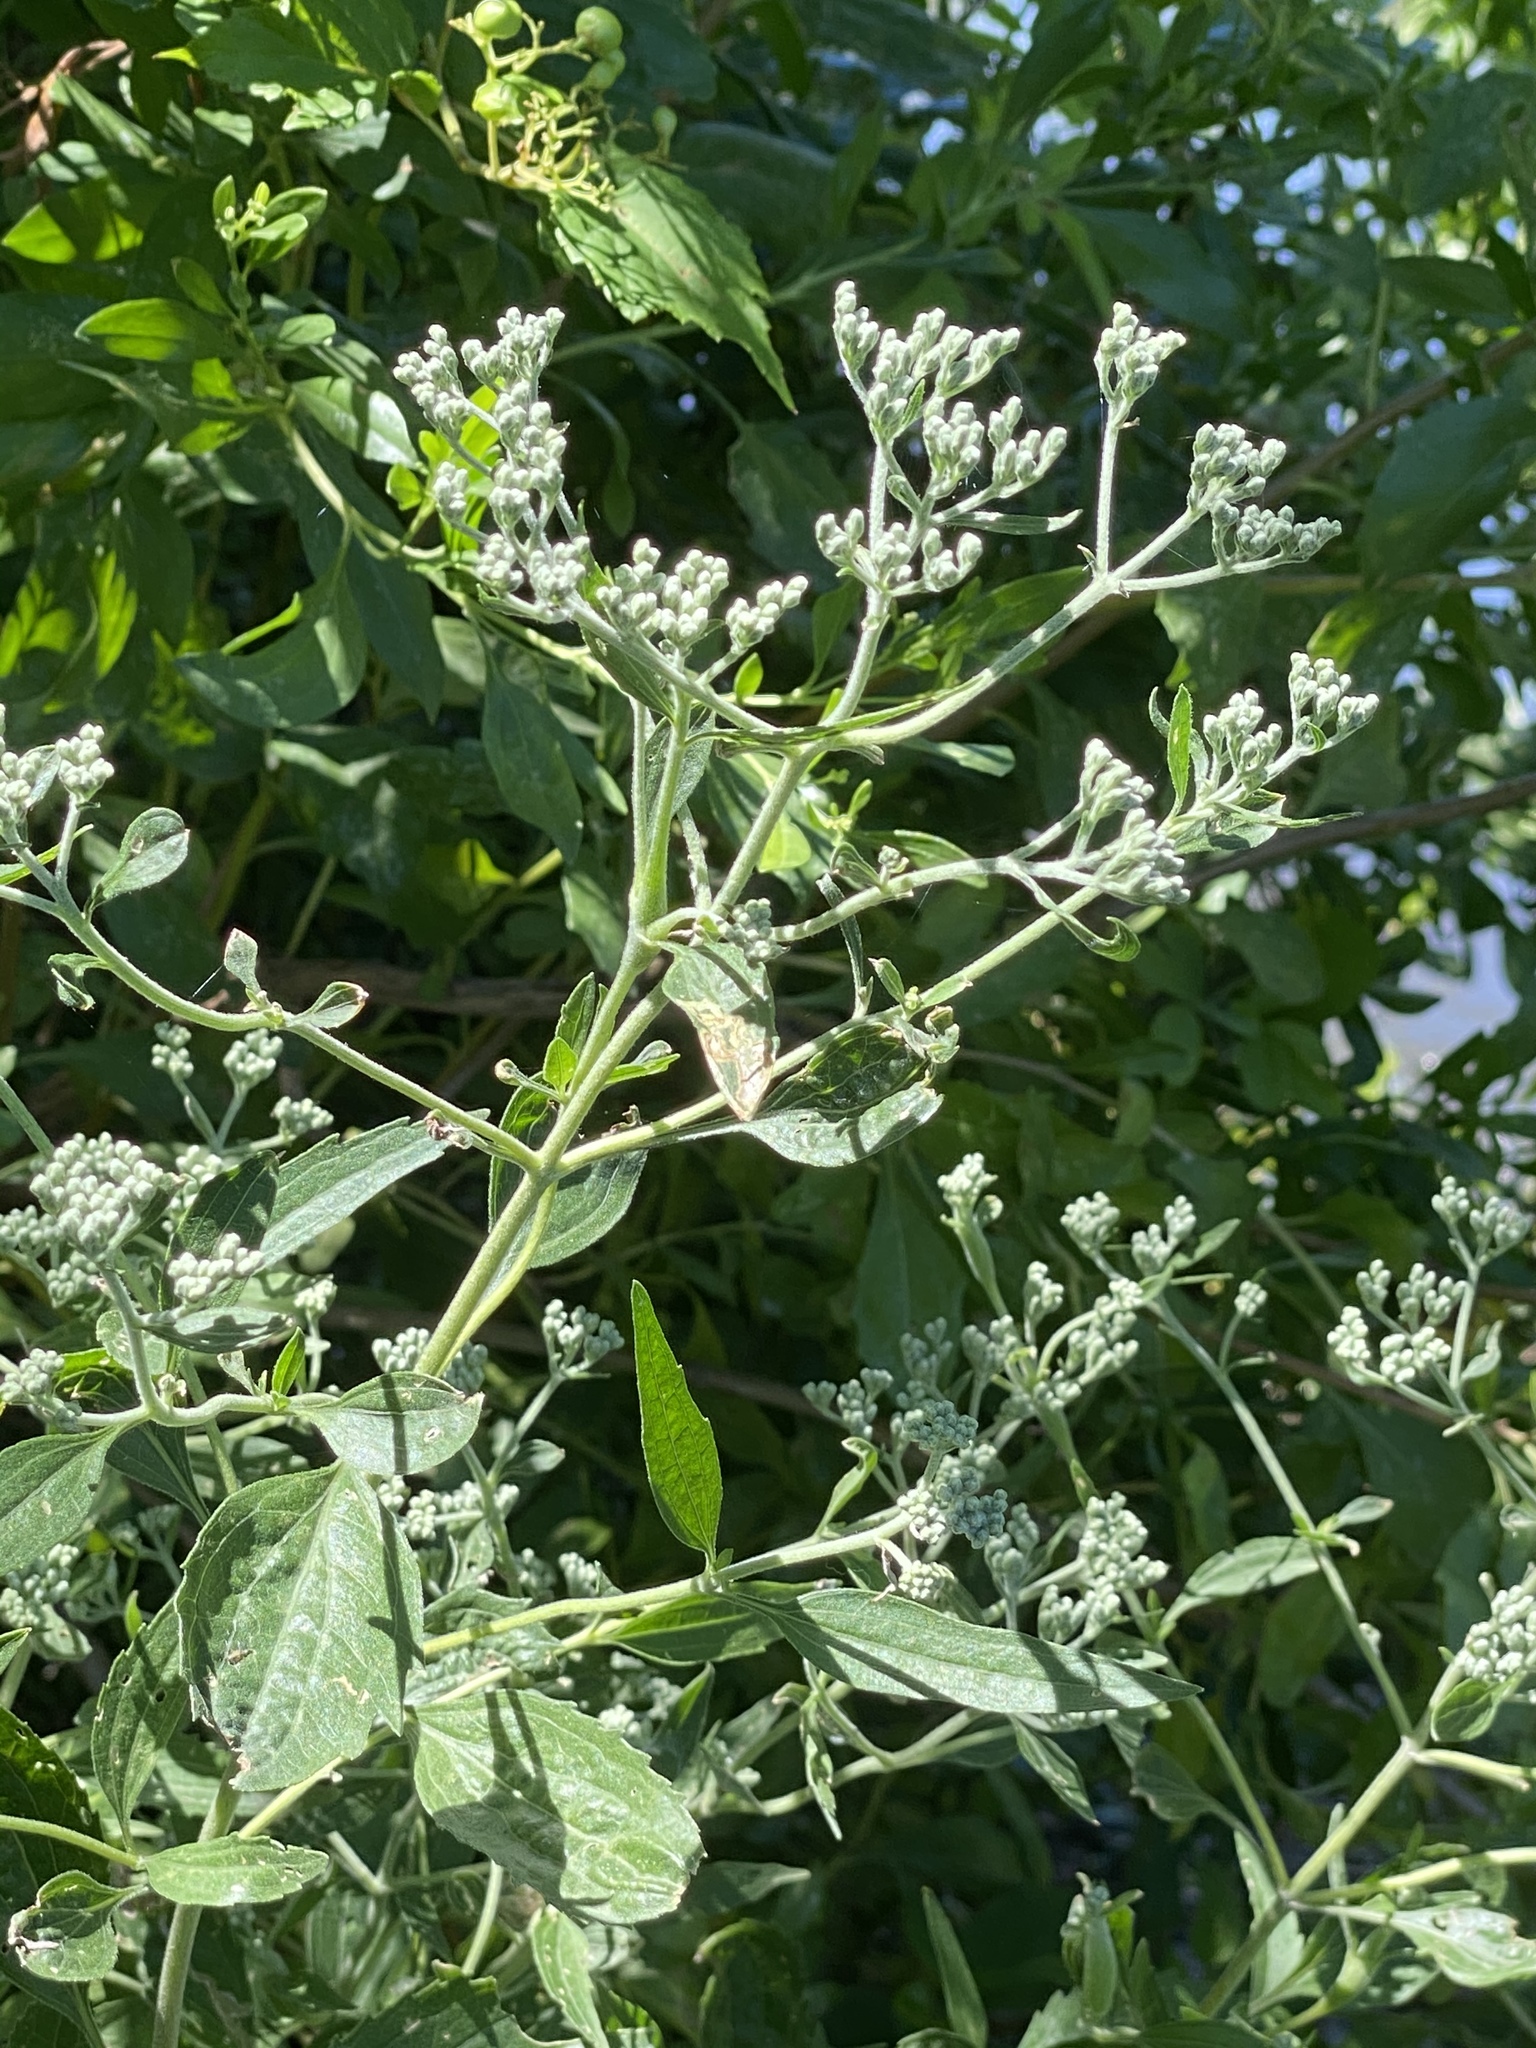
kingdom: Plantae
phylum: Tracheophyta
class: Magnoliopsida
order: Asterales
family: Asteraceae
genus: Eupatorium
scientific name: Eupatorium serotinum
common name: Late boneset
